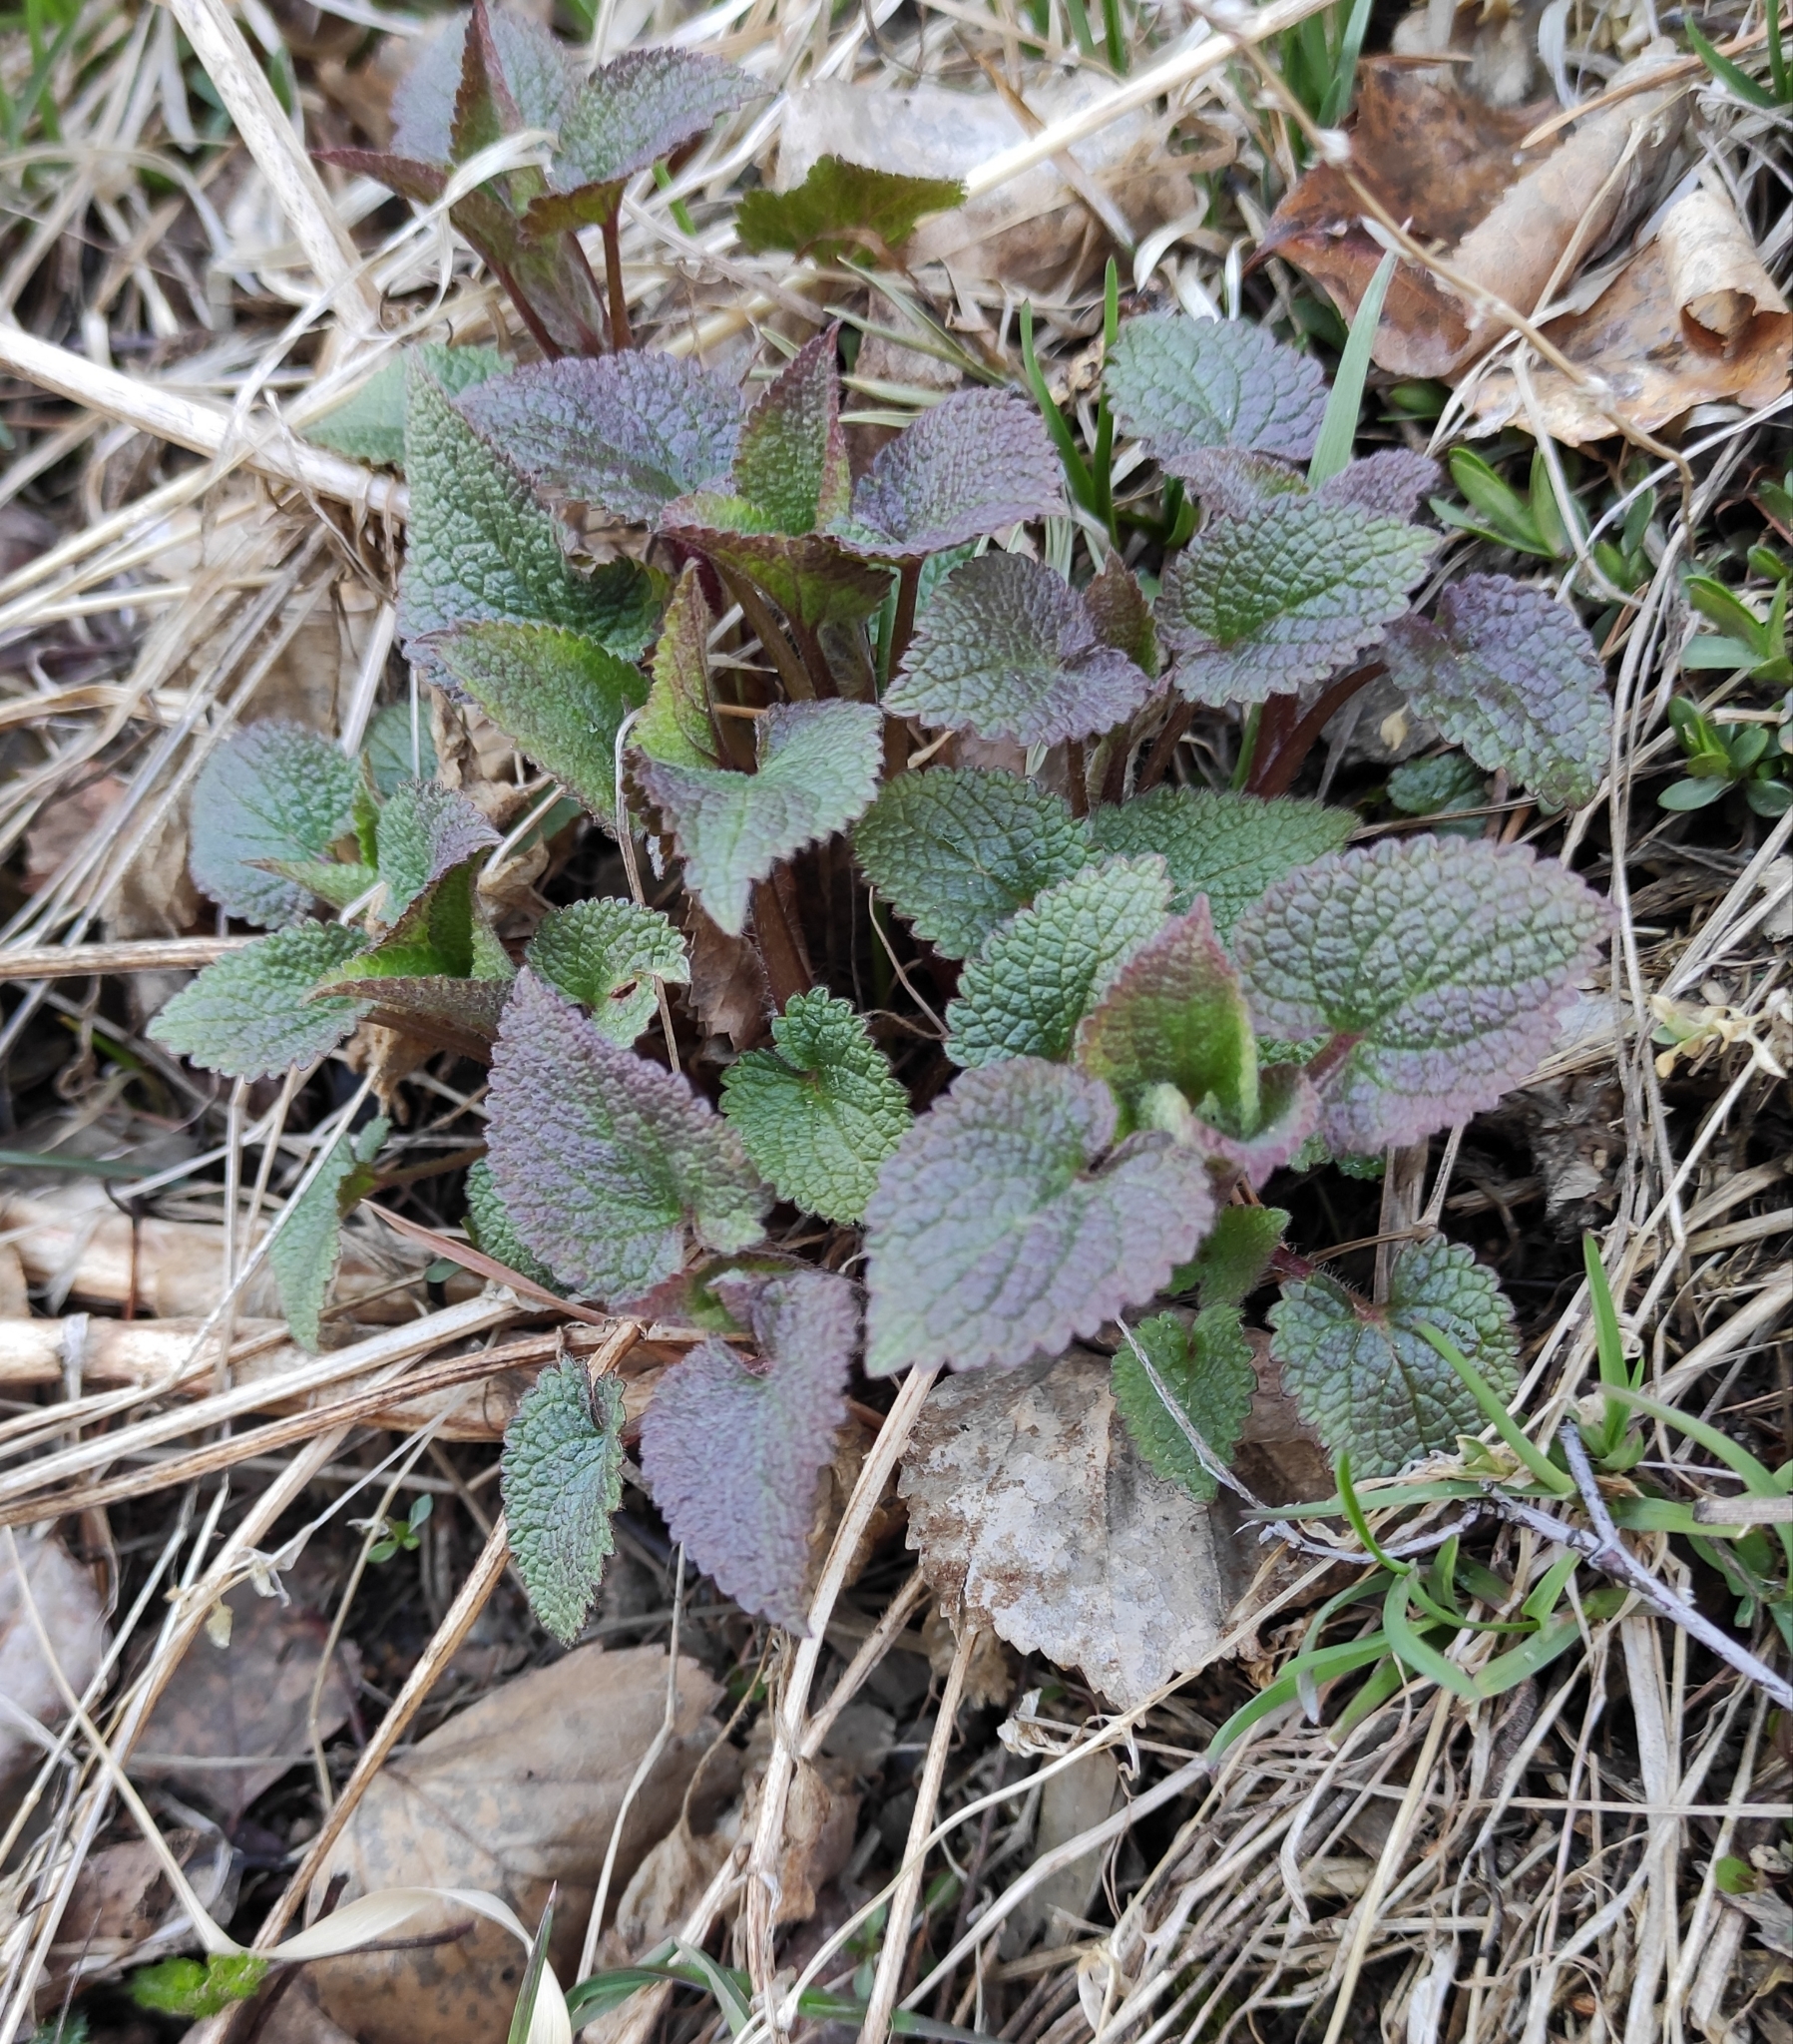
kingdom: Plantae
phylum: Tracheophyta
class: Magnoliopsida
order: Lamiales
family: Lamiaceae
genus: Lamium
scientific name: Lamium album
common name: White dead-nettle
